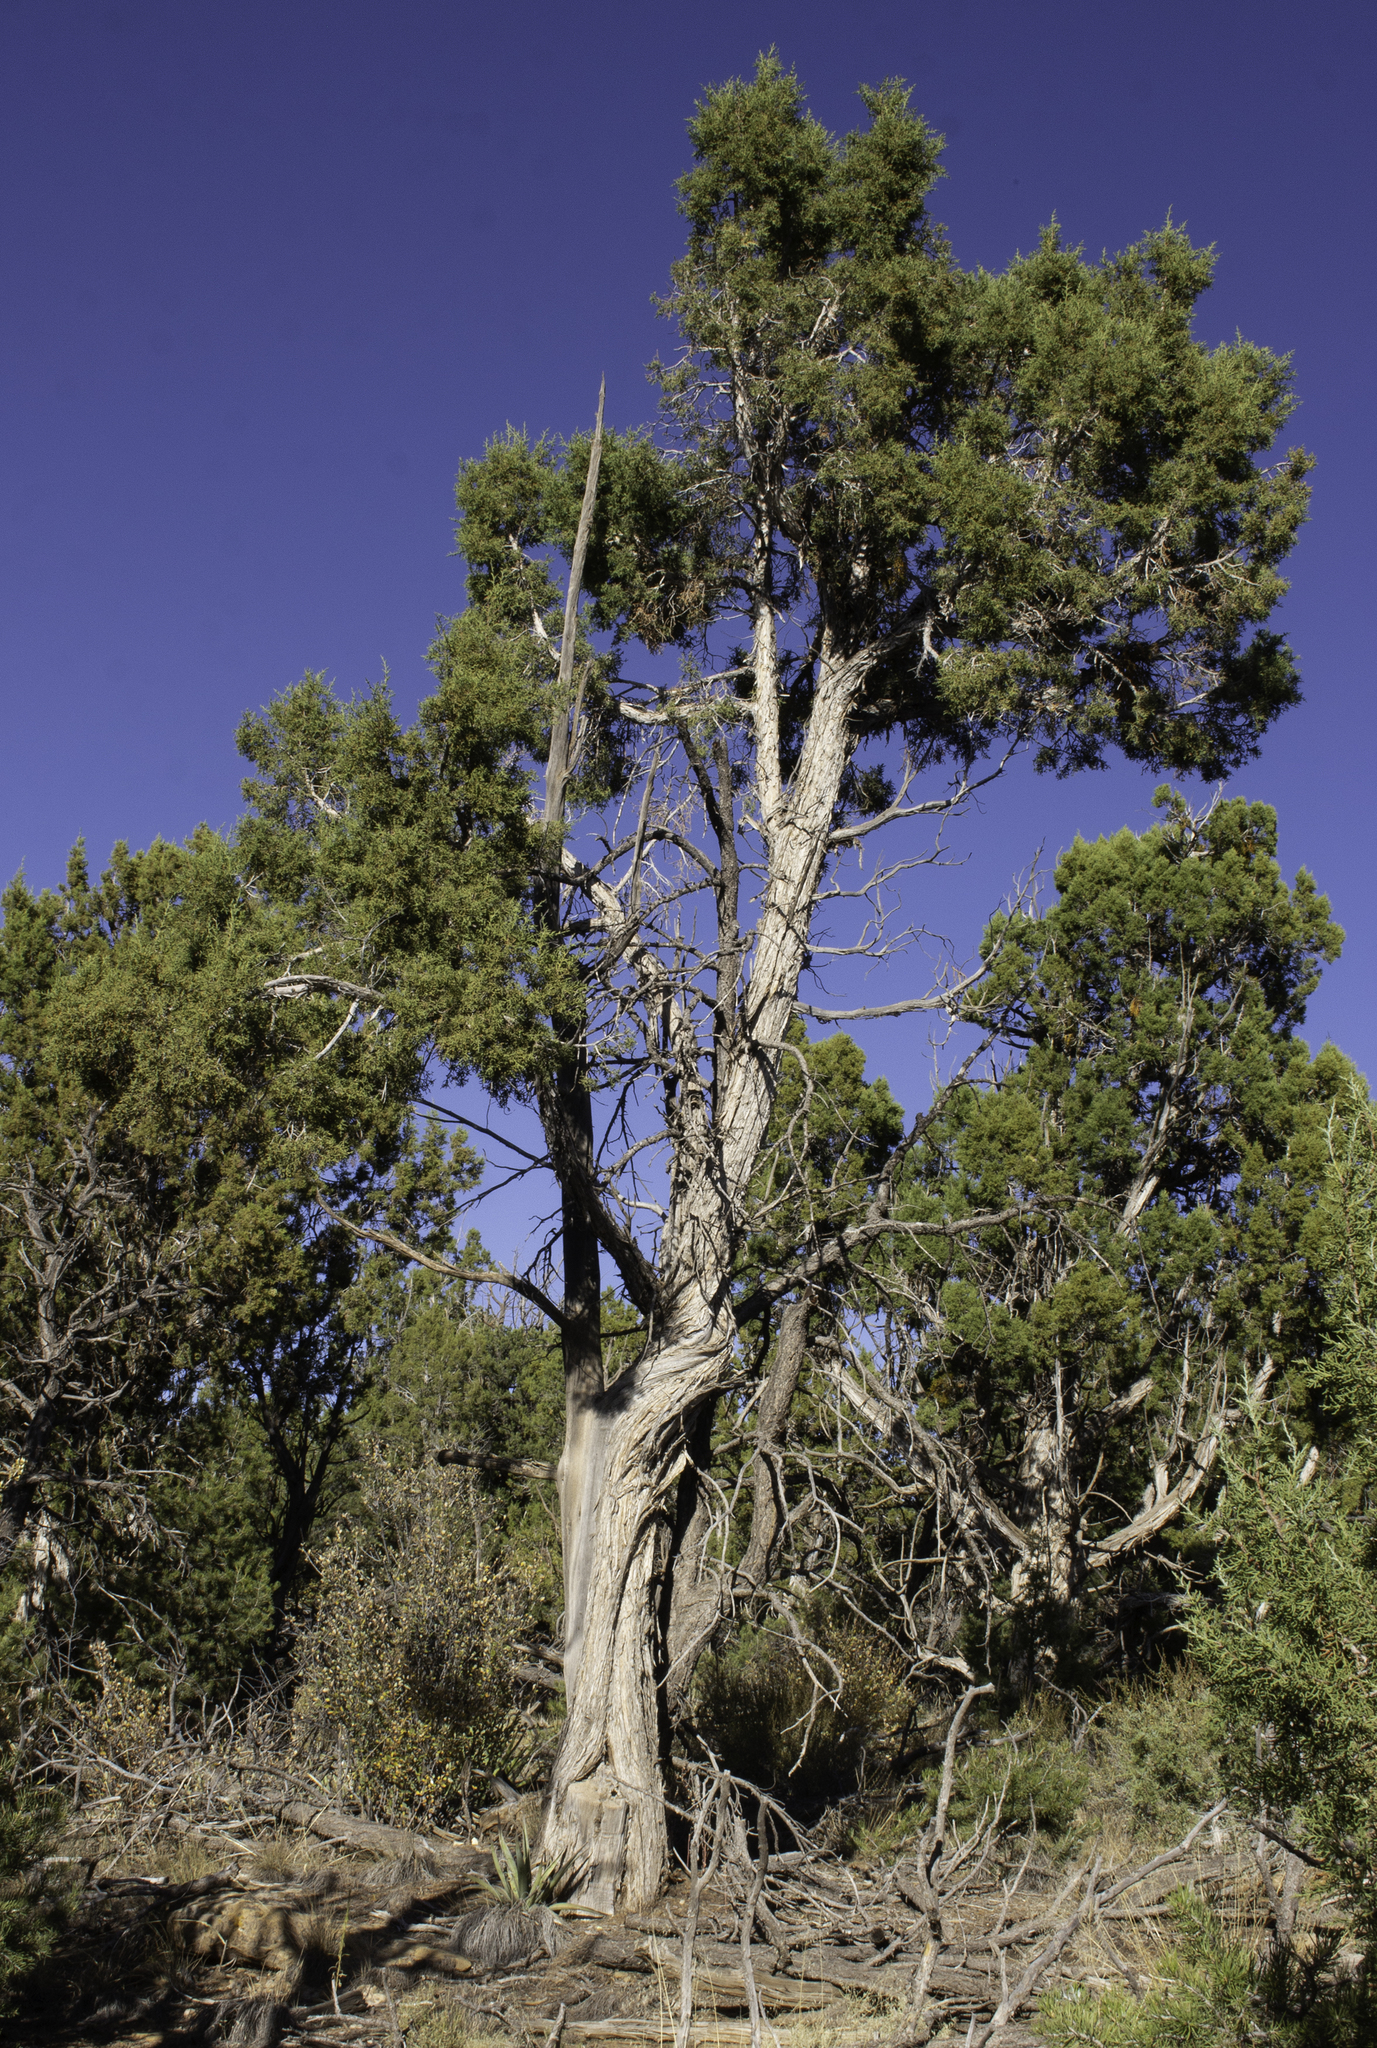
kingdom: Plantae
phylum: Tracheophyta
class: Pinopsida
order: Pinales
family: Cupressaceae
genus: Juniperus
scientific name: Juniperus osteosperma
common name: Utah juniper
